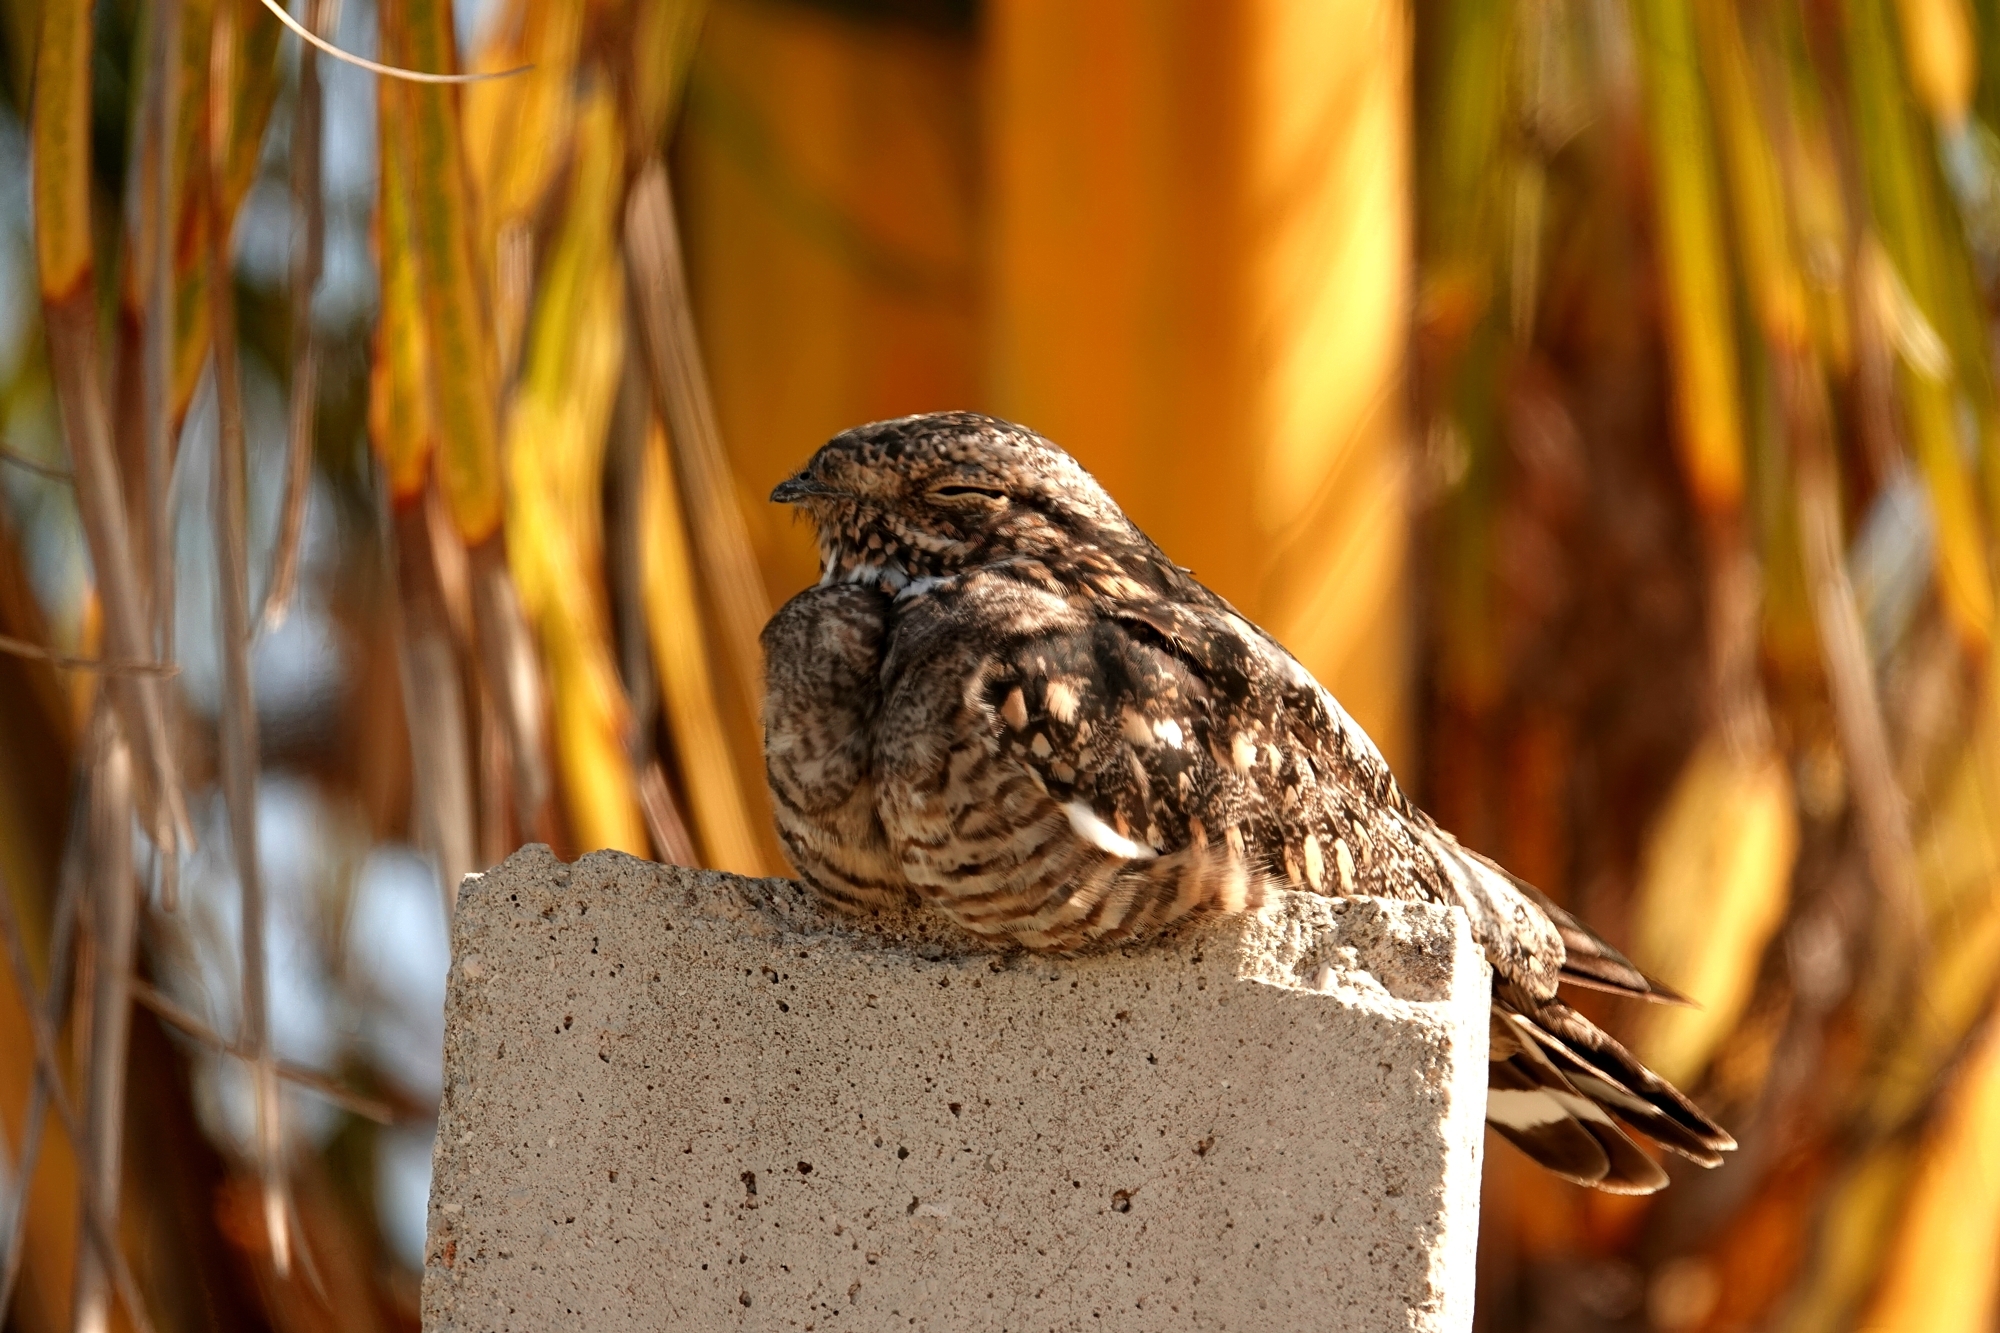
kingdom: Animalia
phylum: Chordata
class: Aves
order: Caprimulgiformes
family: Caprimulgidae
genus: Chordeiles
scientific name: Chordeiles acutipennis
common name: Lesser nighthawk
